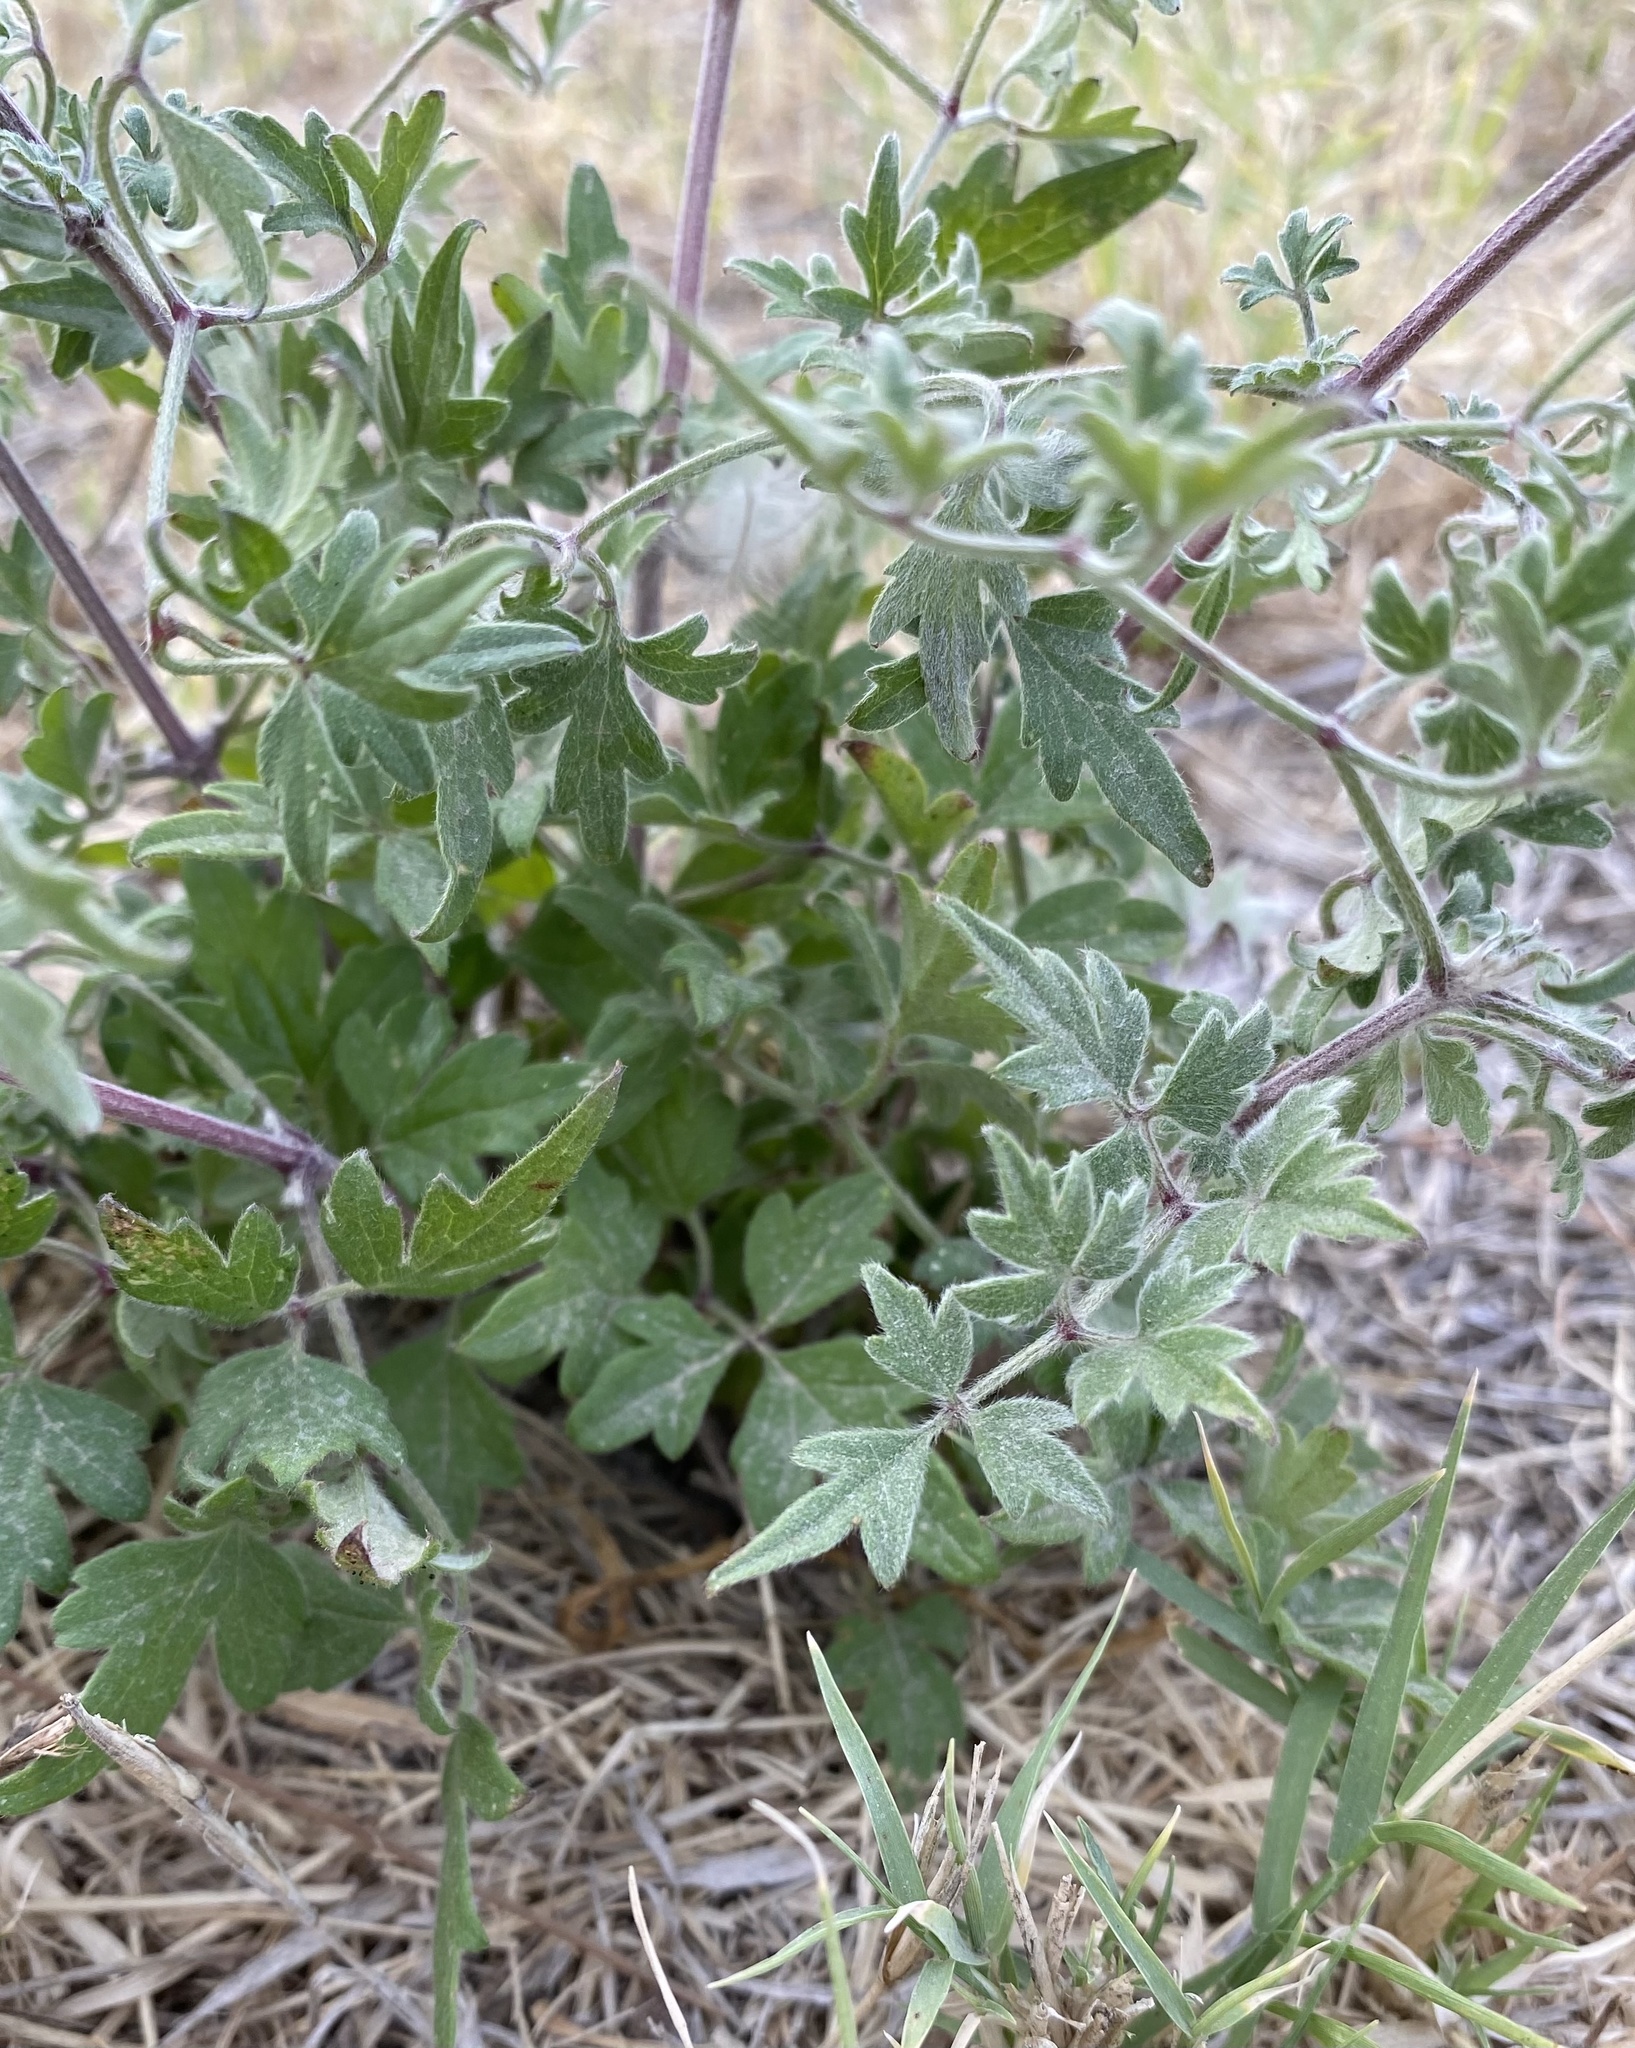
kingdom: Plantae
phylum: Tracheophyta
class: Magnoliopsida
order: Ranunculales
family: Ranunculaceae
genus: Clematis
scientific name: Clematis drummondii
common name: Texas virgin's bower
